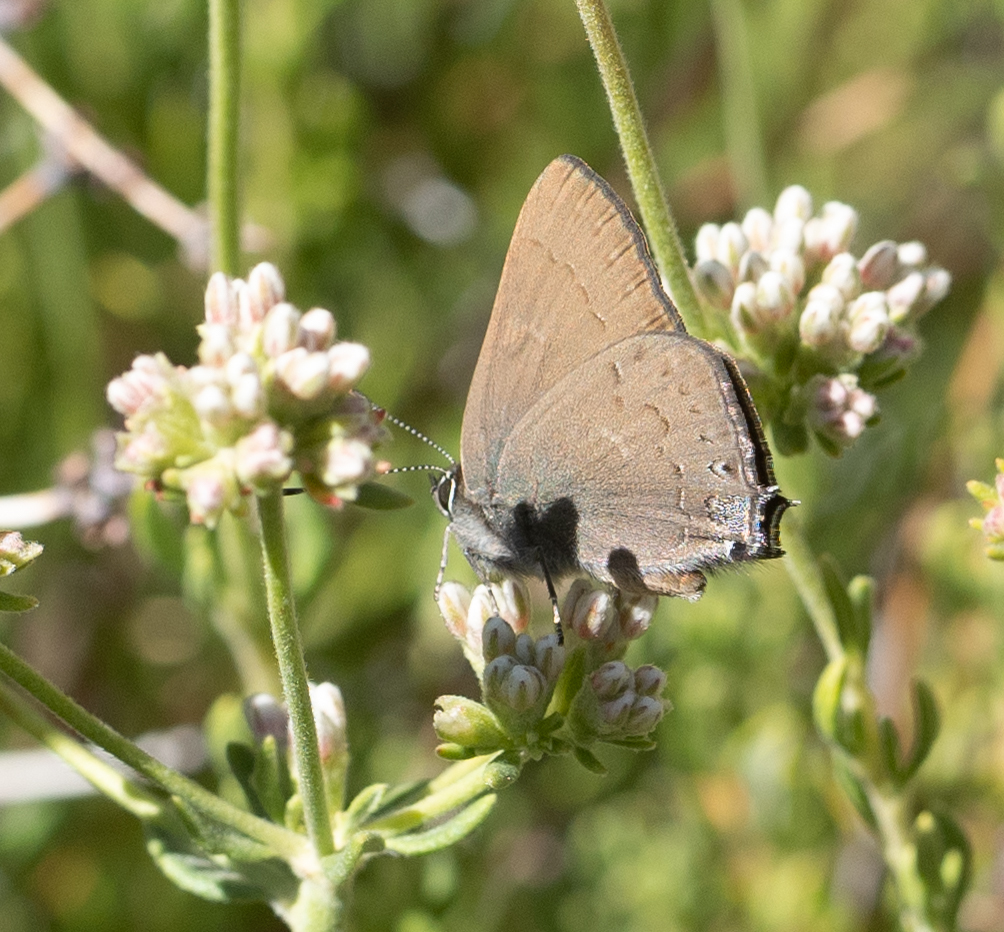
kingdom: Animalia
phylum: Arthropoda
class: Insecta
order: Lepidoptera
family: Lycaenidae
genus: Strymon
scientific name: Strymon saepium
